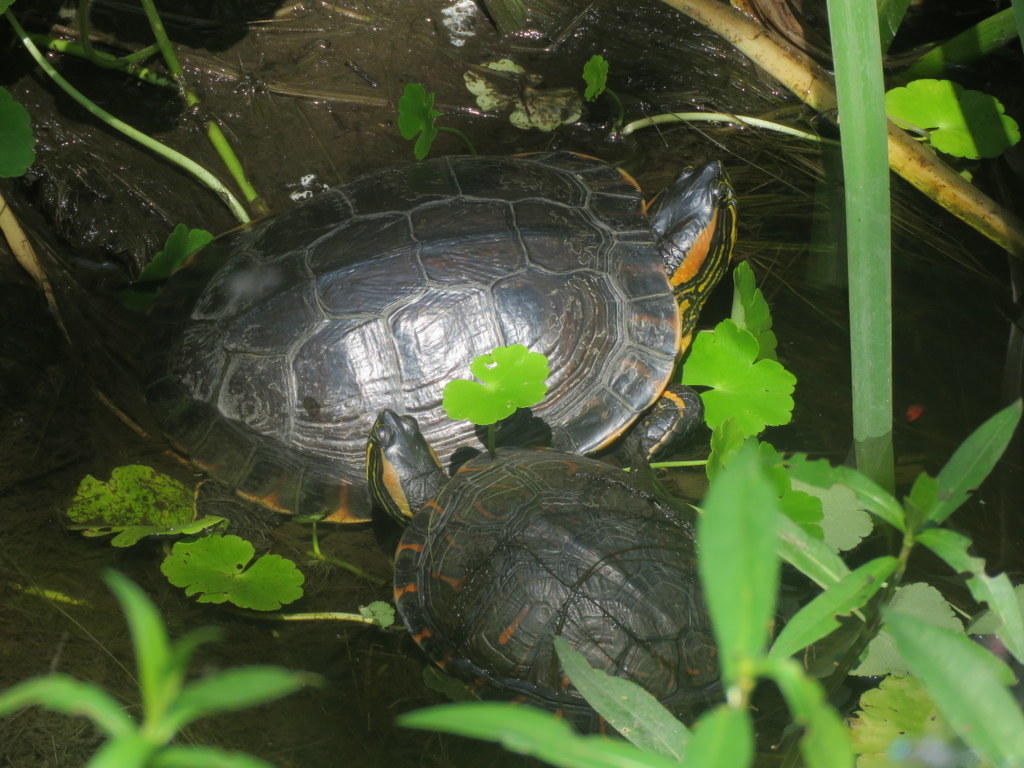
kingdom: Animalia
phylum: Chordata
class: Testudines
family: Emydidae
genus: Trachemys
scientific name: Trachemys dorbigni
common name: Black-bellied slider
